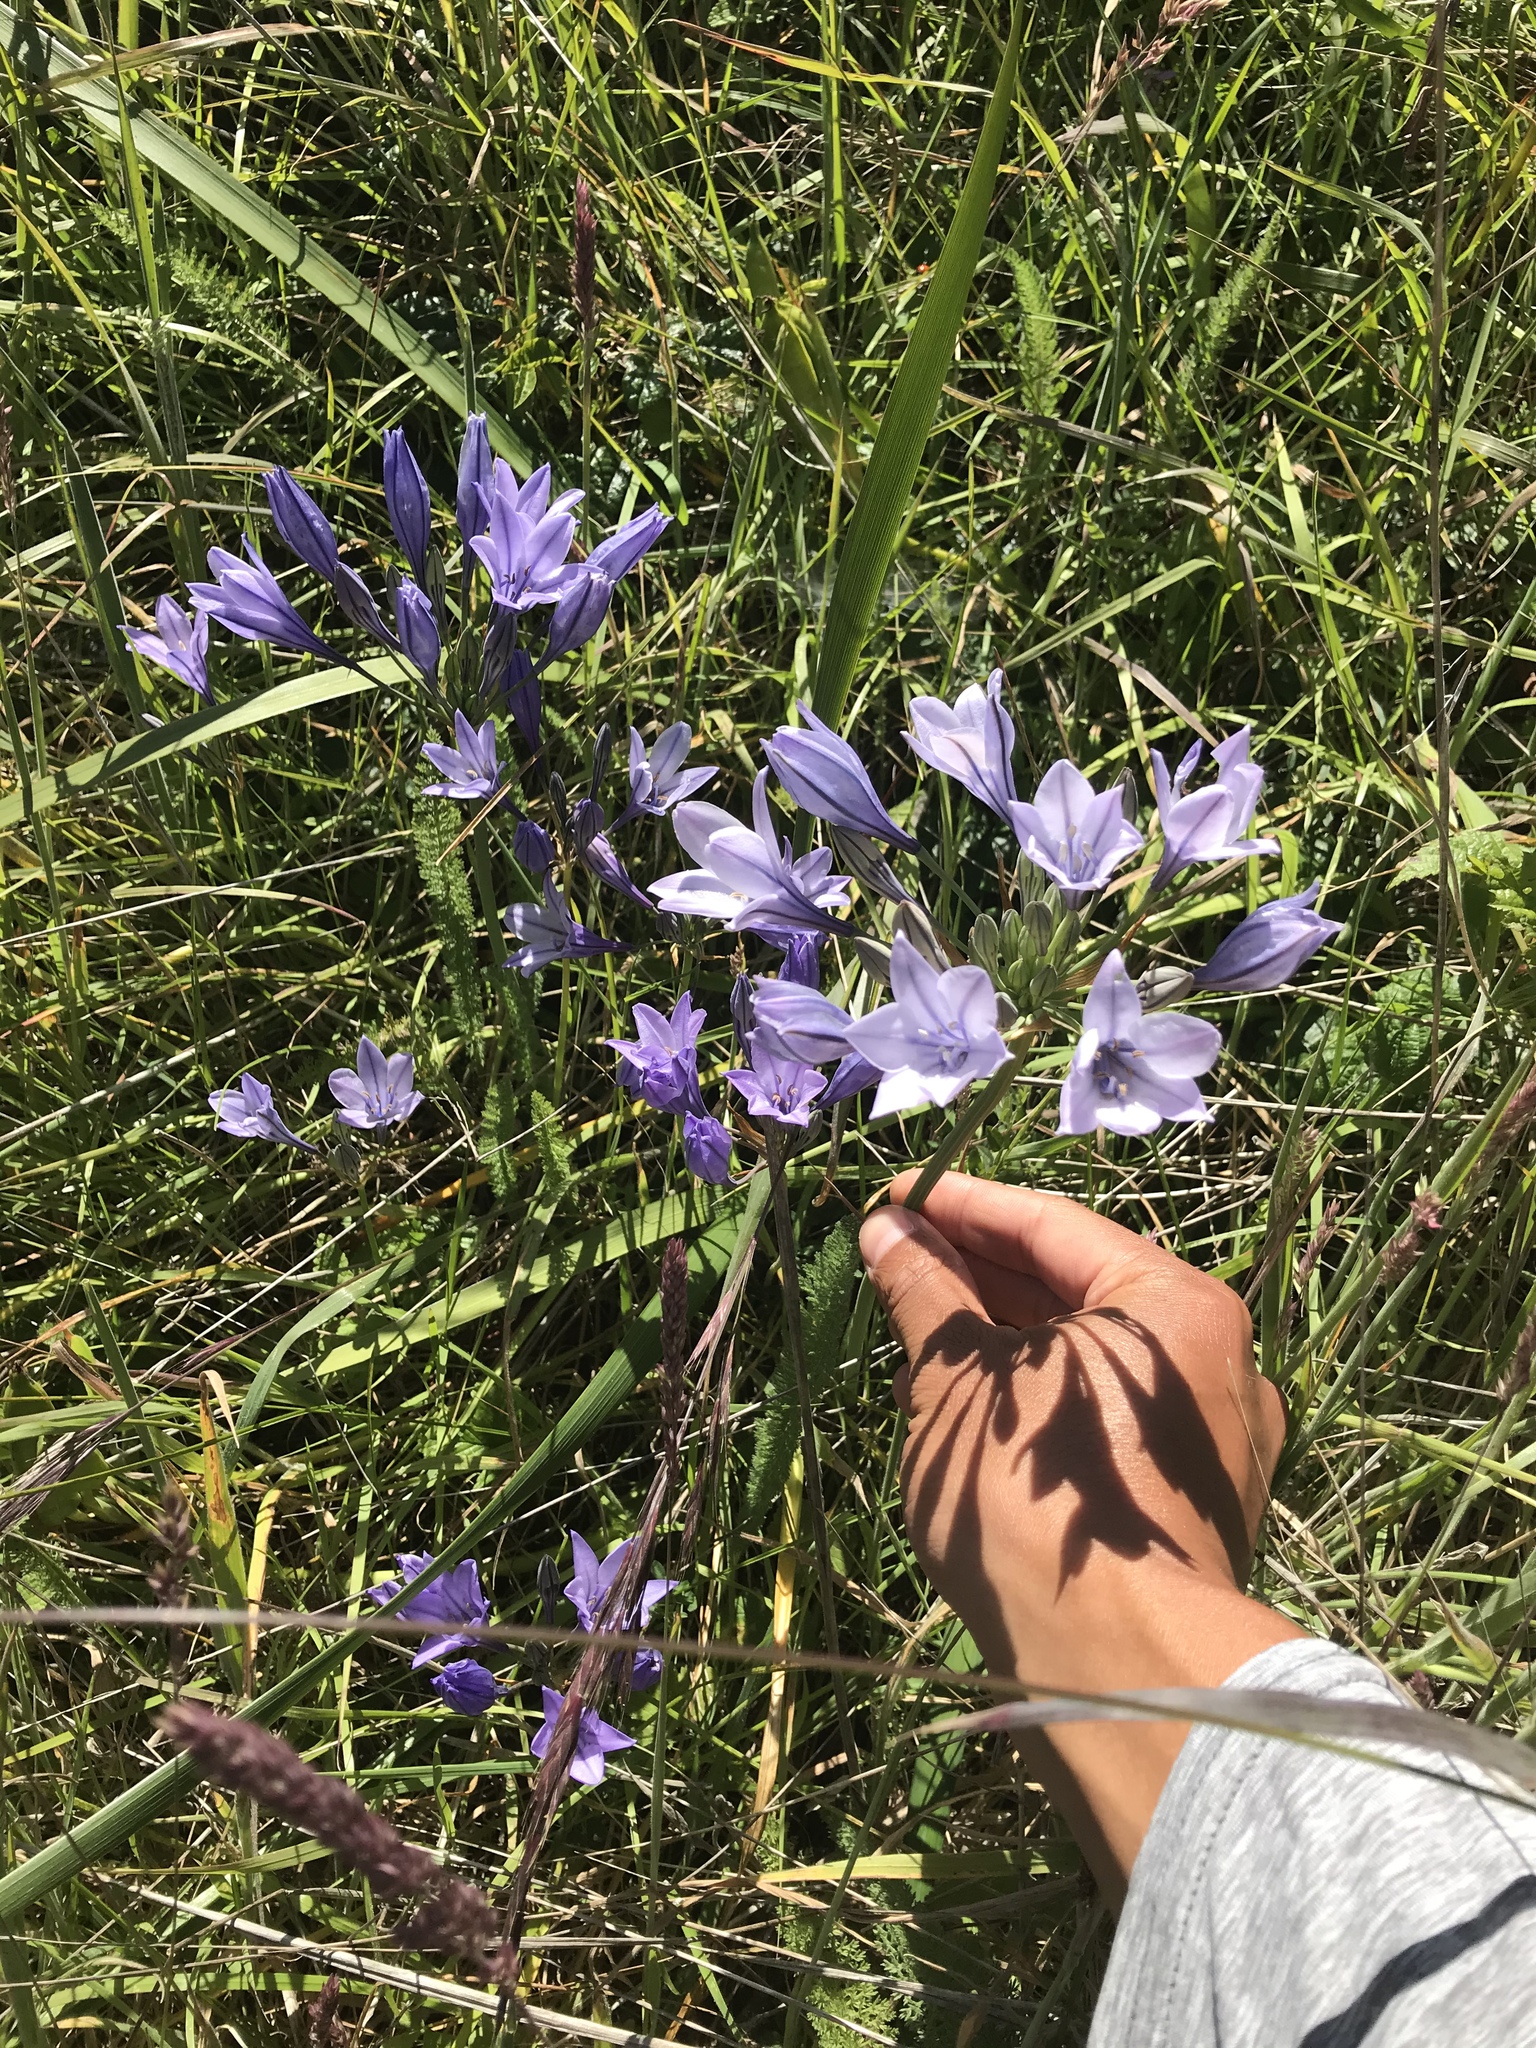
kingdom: Plantae
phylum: Tracheophyta
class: Liliopsida
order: Asparagales
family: Asparagaceae
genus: Triteleia
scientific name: Triteleia laxa
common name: Triplet-lily
